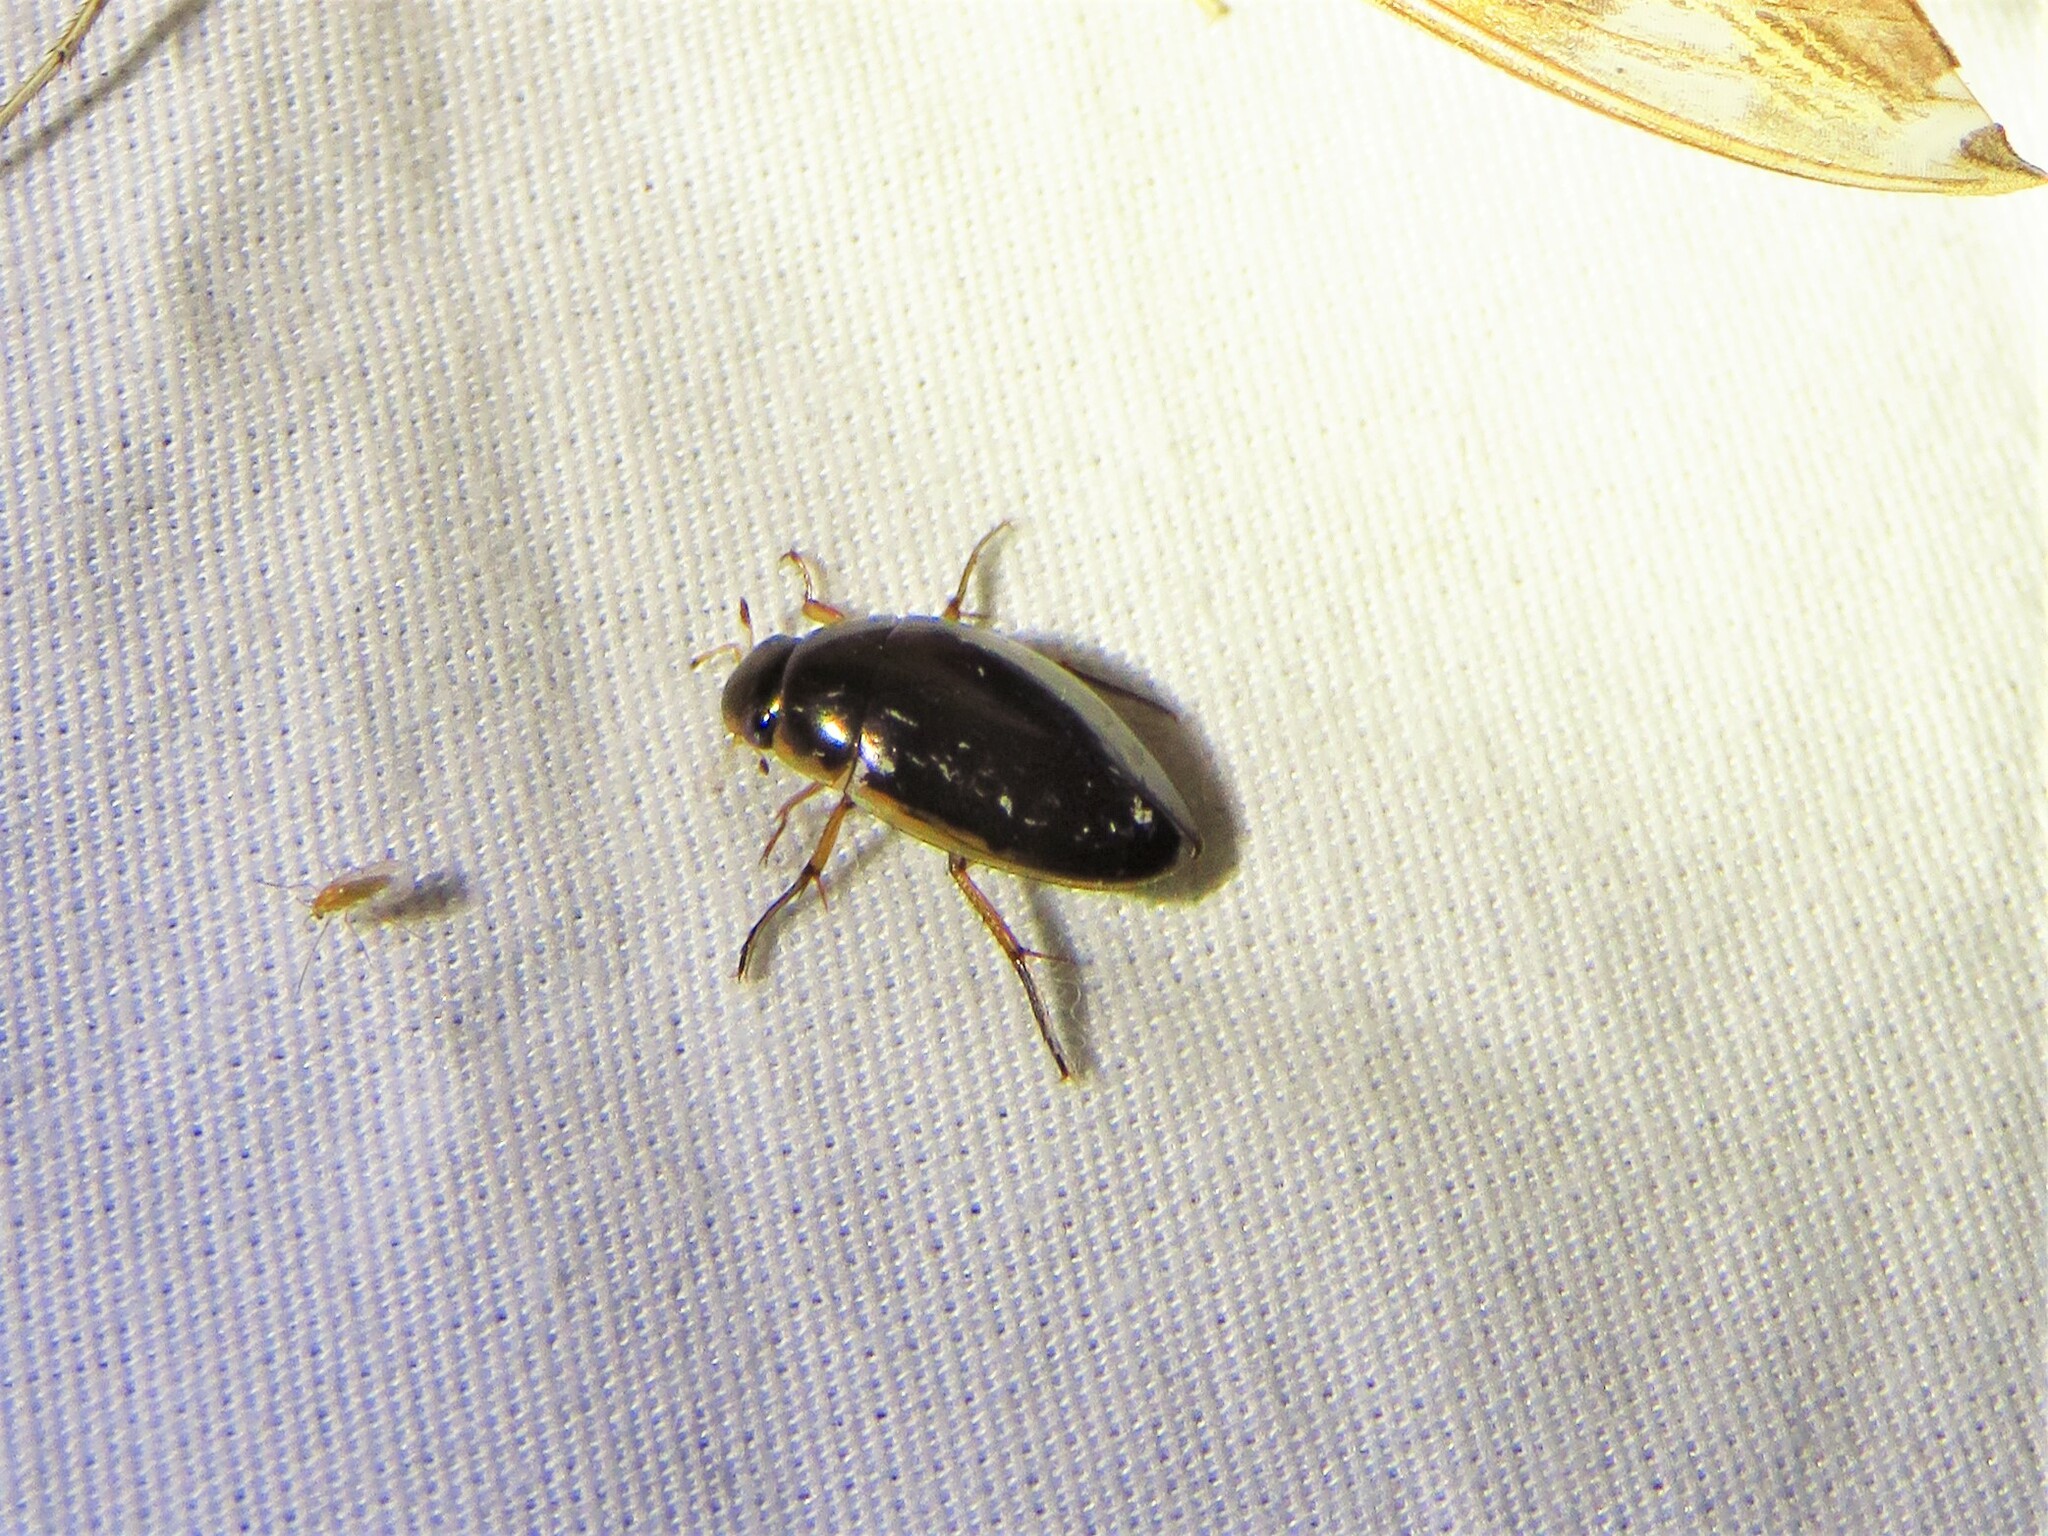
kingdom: Animalia
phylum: Arthropoda
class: Insecta
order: Coleoptera
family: Hydrophilidae
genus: Tropisternus
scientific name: Tropisternus lateralis
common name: Lateral-banded water scavenger beetle
